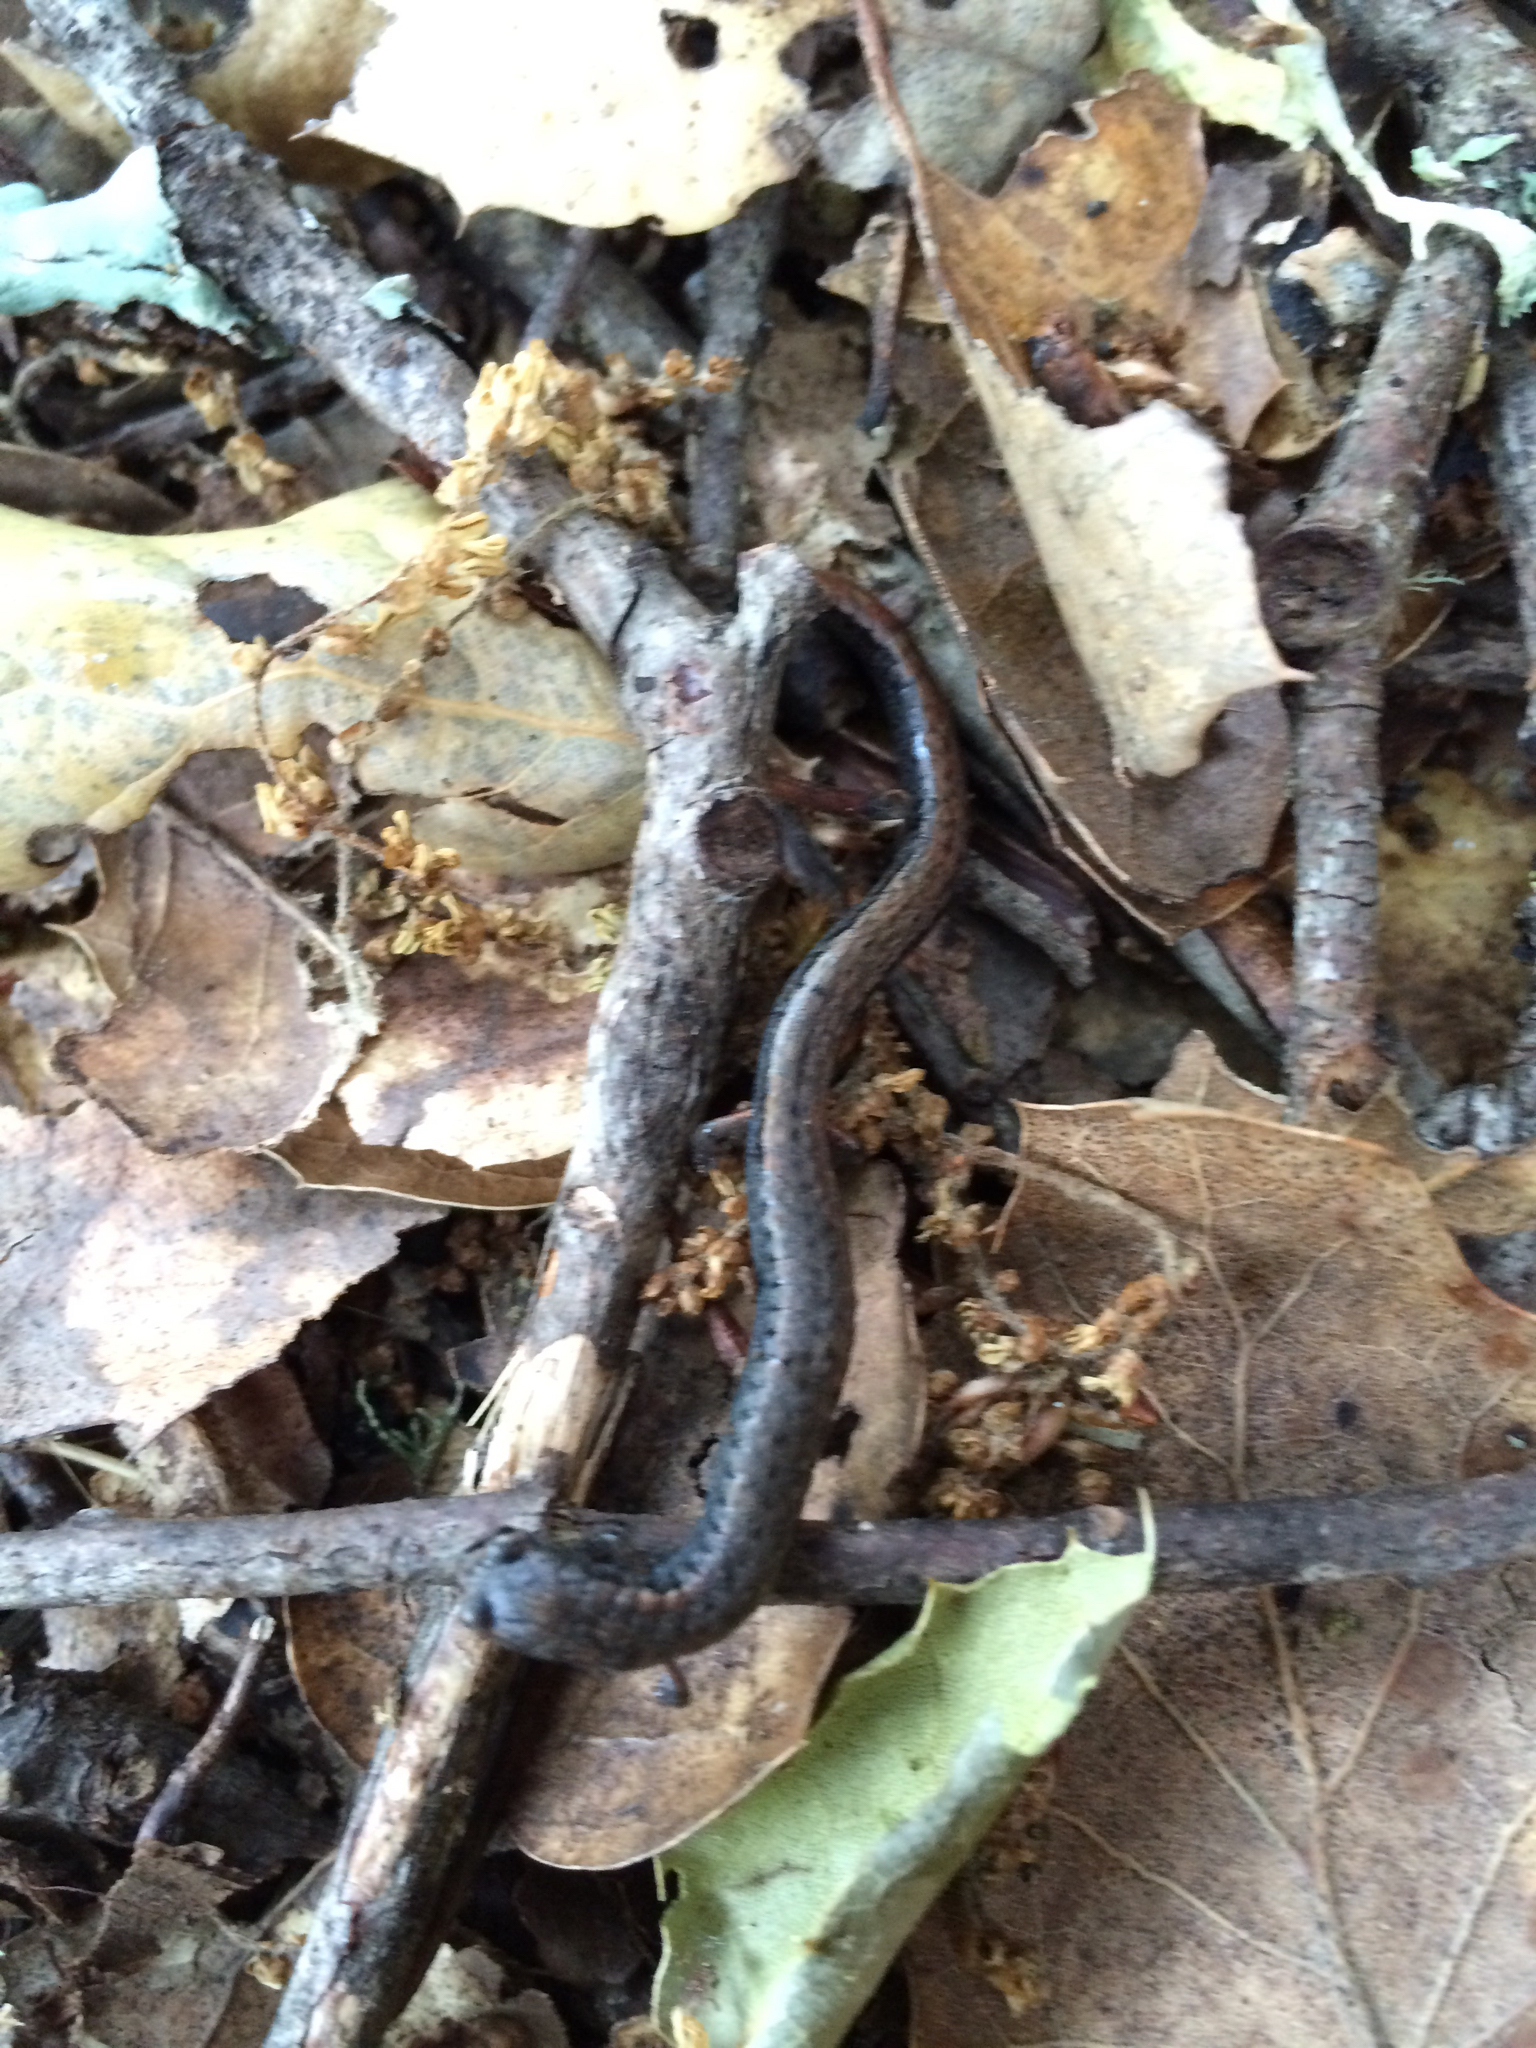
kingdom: Animalia
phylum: Chordata
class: Amphibia
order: Caudata
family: Plethodontidae
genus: Batrachoseps
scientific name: Batrachoseps attenuatus
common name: California slender salamander
